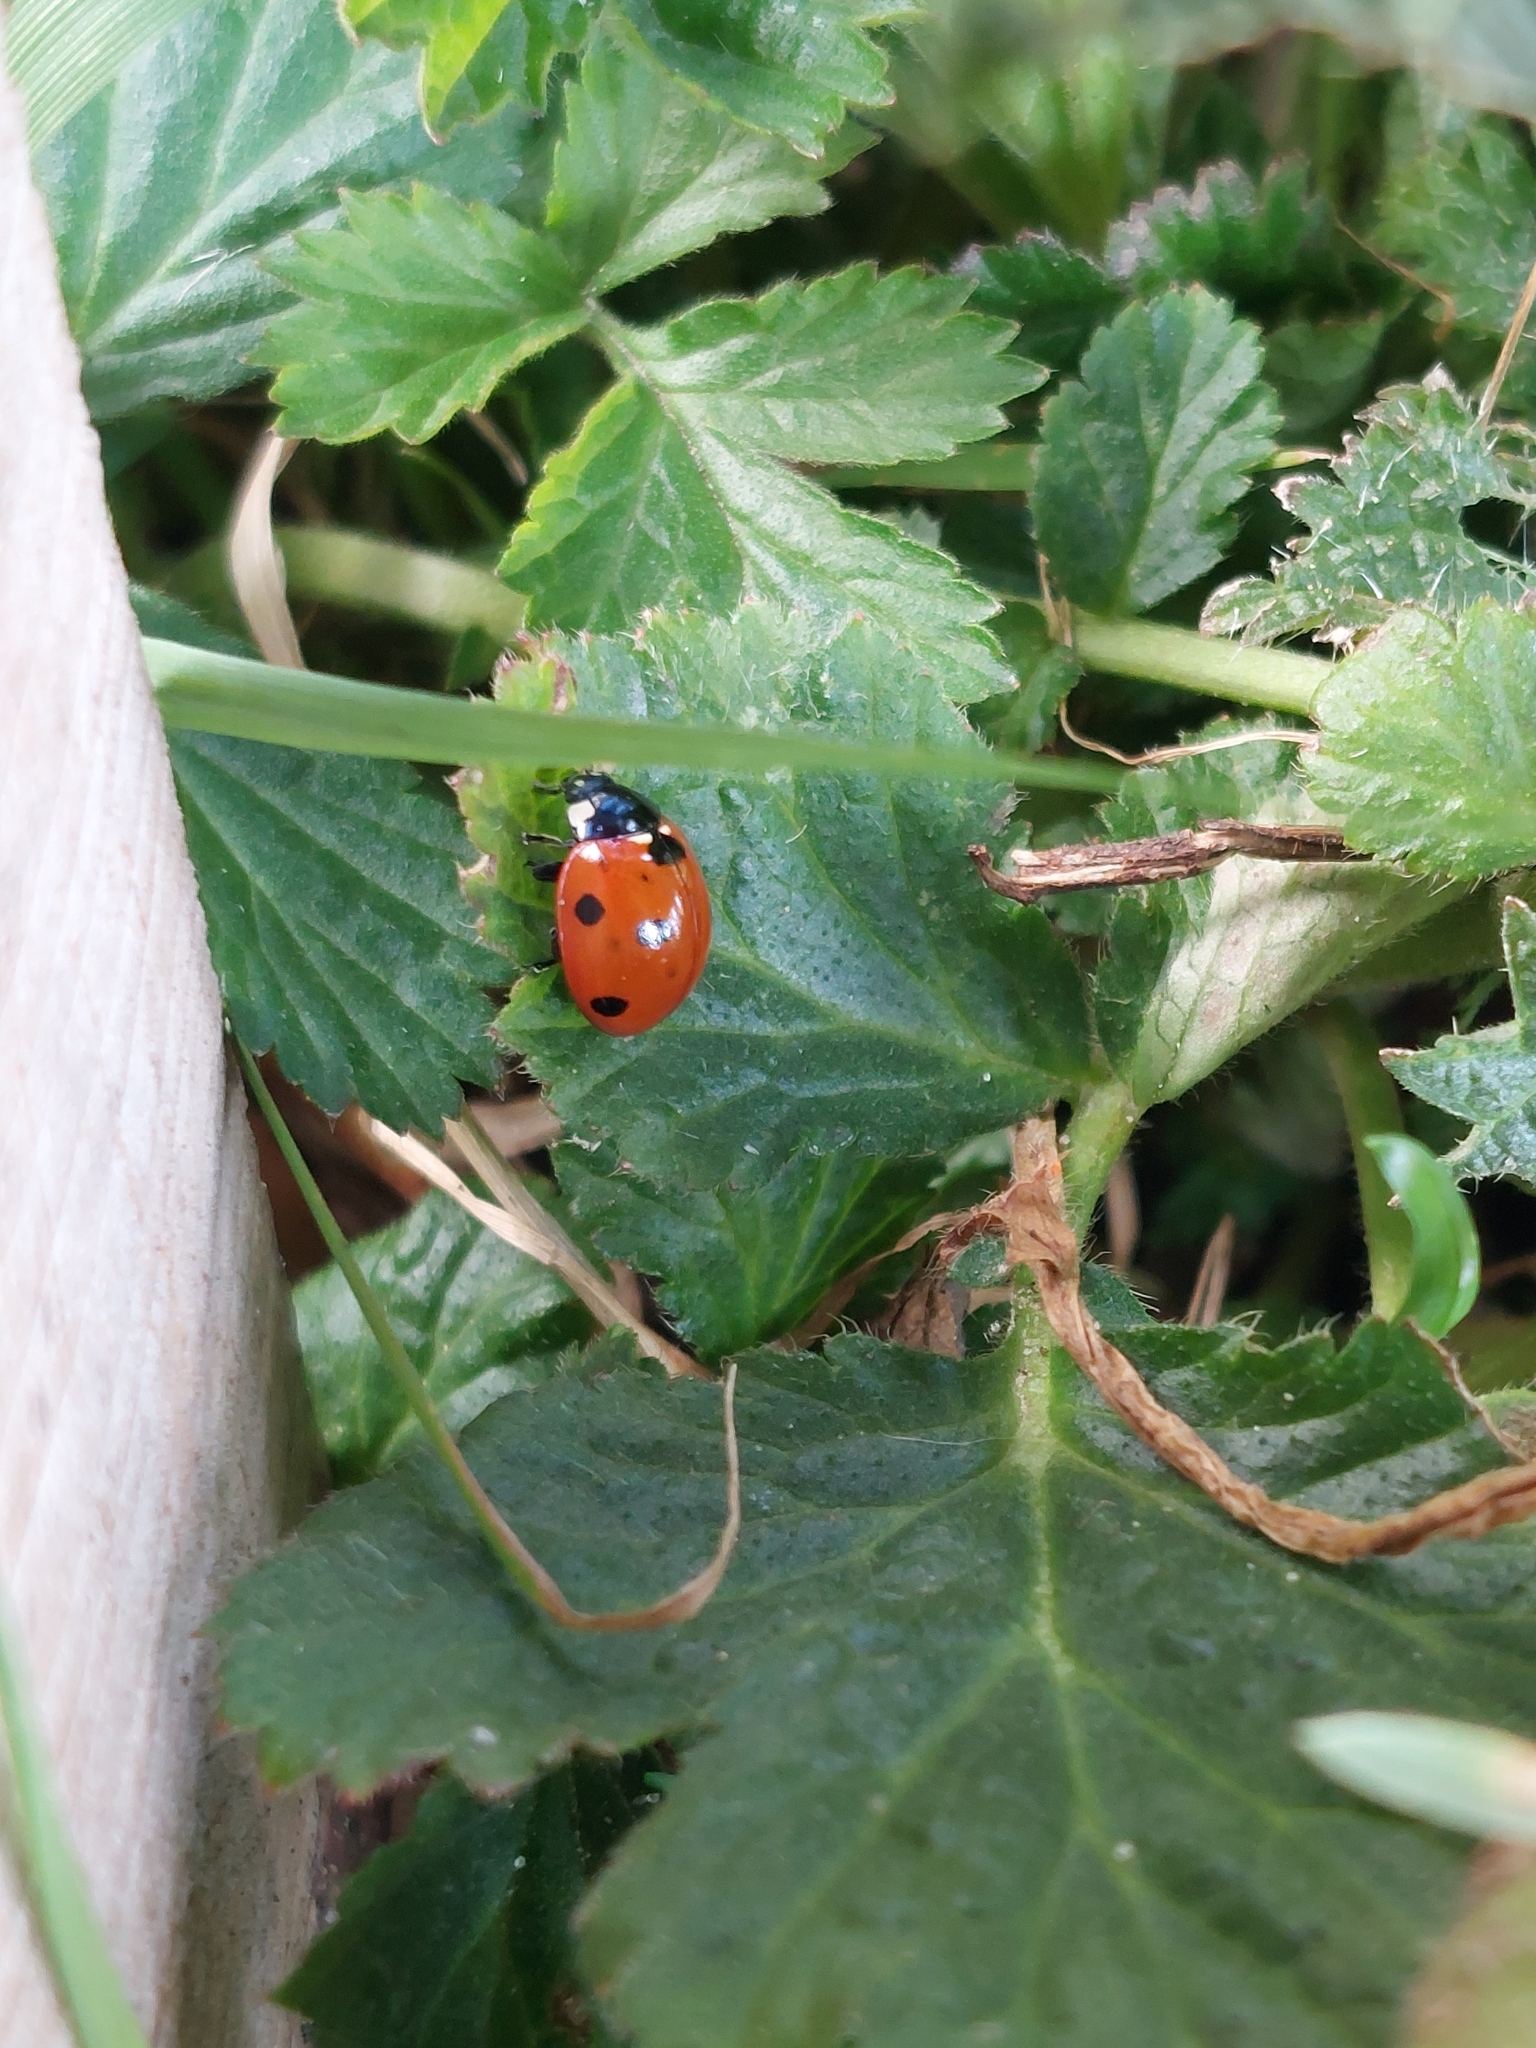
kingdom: Animalia
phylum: Arthropoda
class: Insecta
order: Coleoptera
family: Coccinellidae
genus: Coccinella
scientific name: Coccinella septempunctata
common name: Sevenspotted lady beetle
